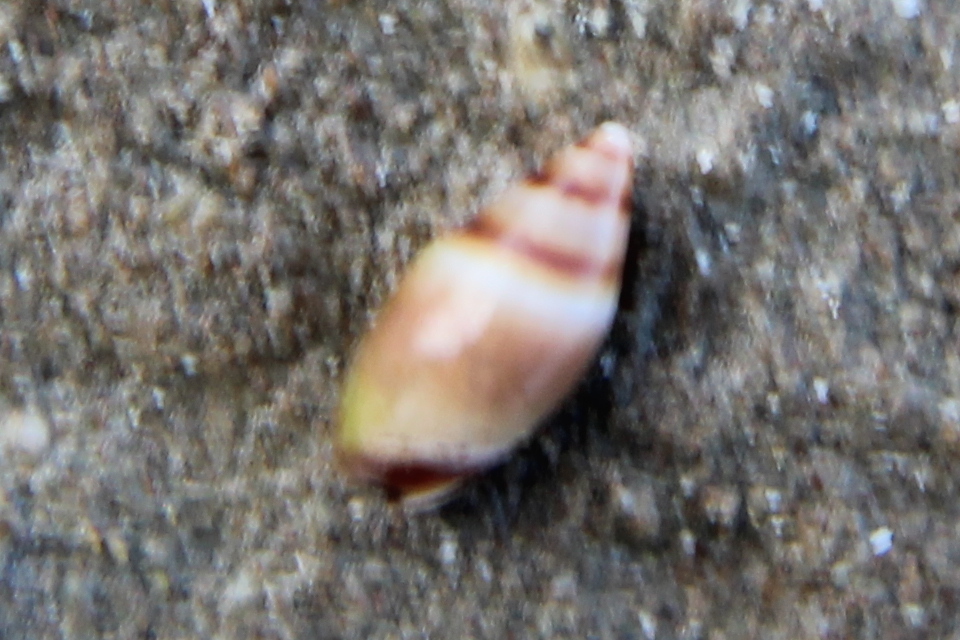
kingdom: Animalia
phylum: Mollusca
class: Gastropoda
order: Neogastropoda
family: Ancillariidae
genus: Amalda
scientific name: Amalda novaezelandiae
